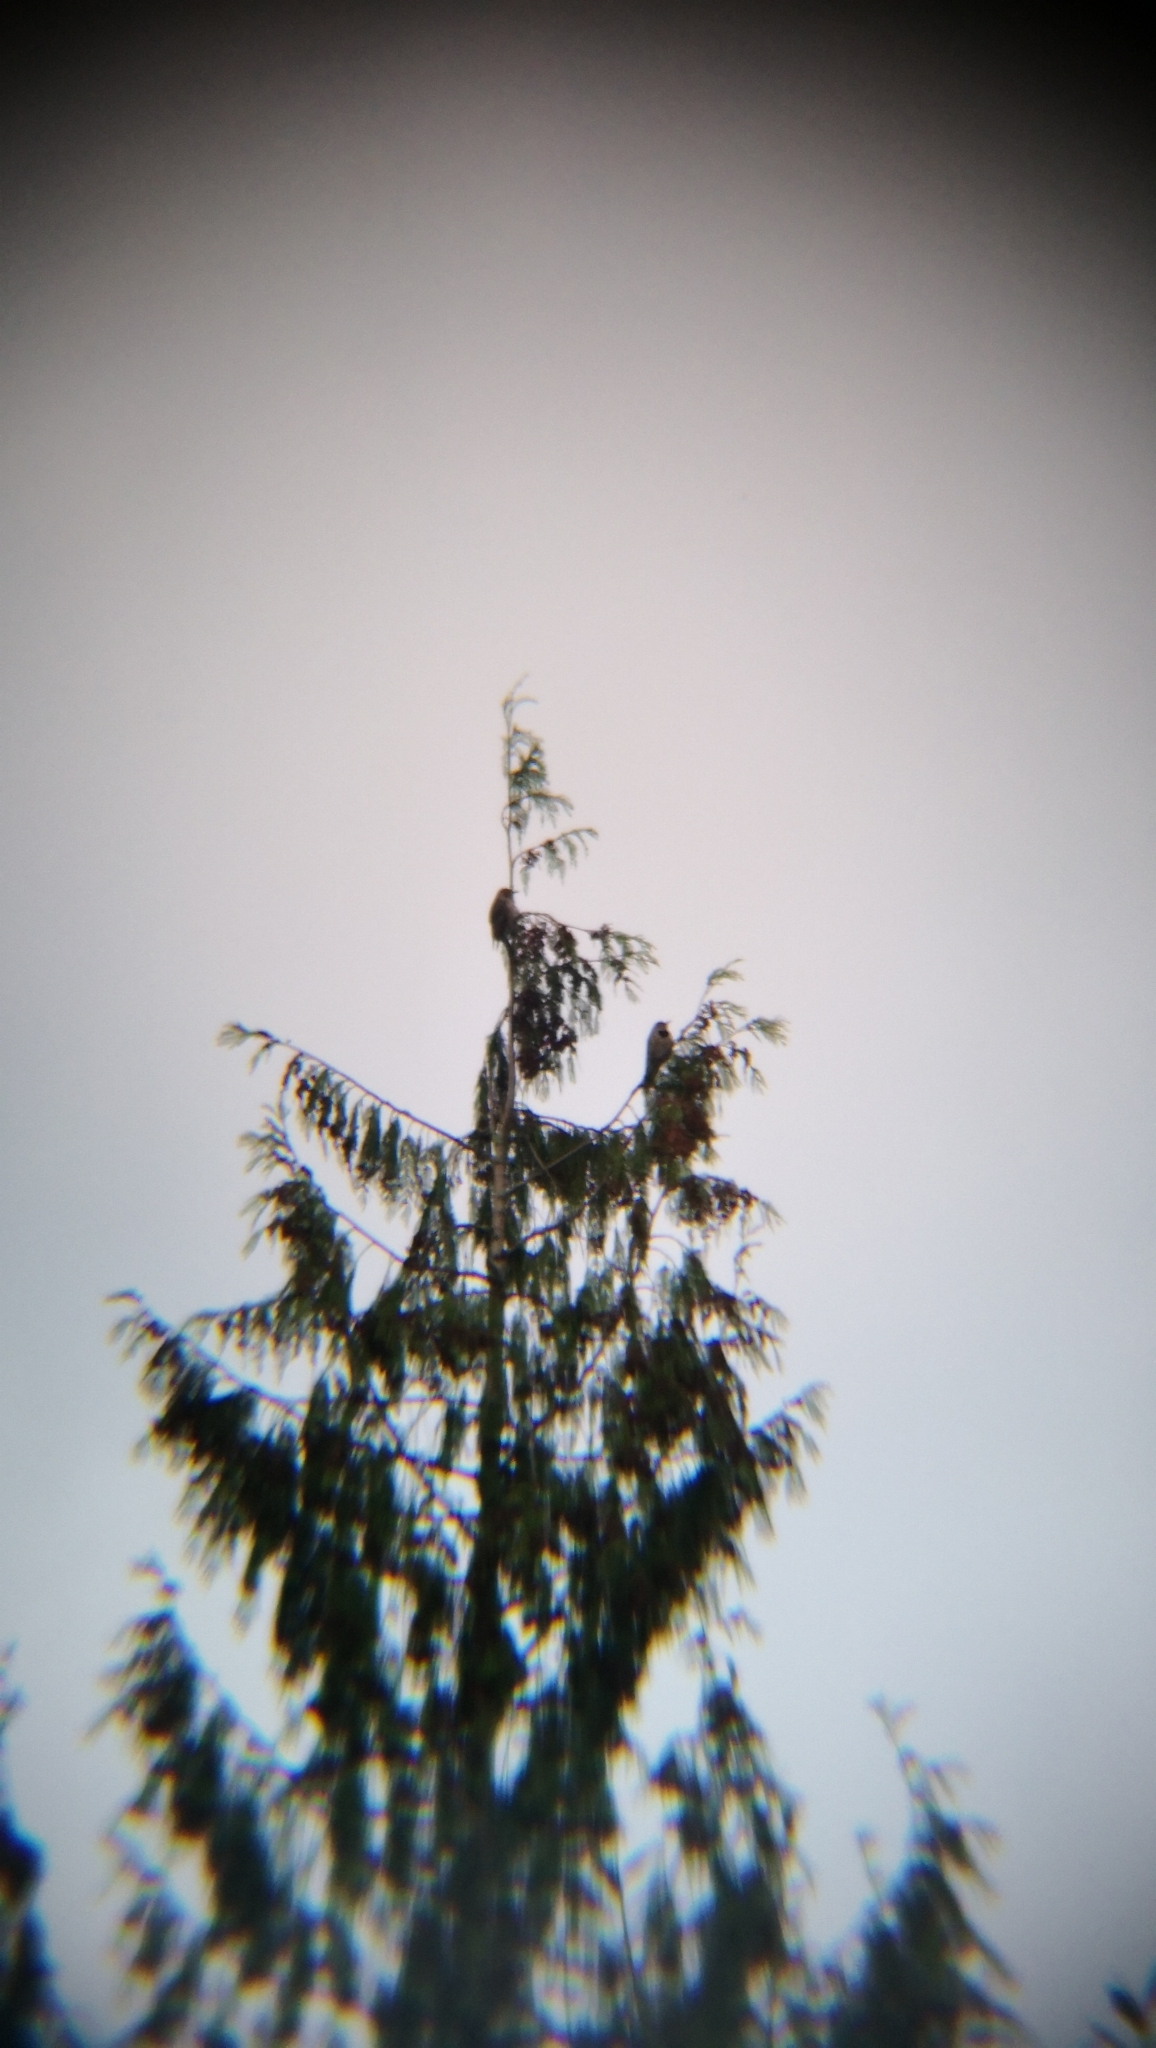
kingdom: Animalia
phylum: Chordata
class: Aves
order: Piciformes
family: Picidae
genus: Colaptes
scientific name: Colaptes auratus
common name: Northern flicker
